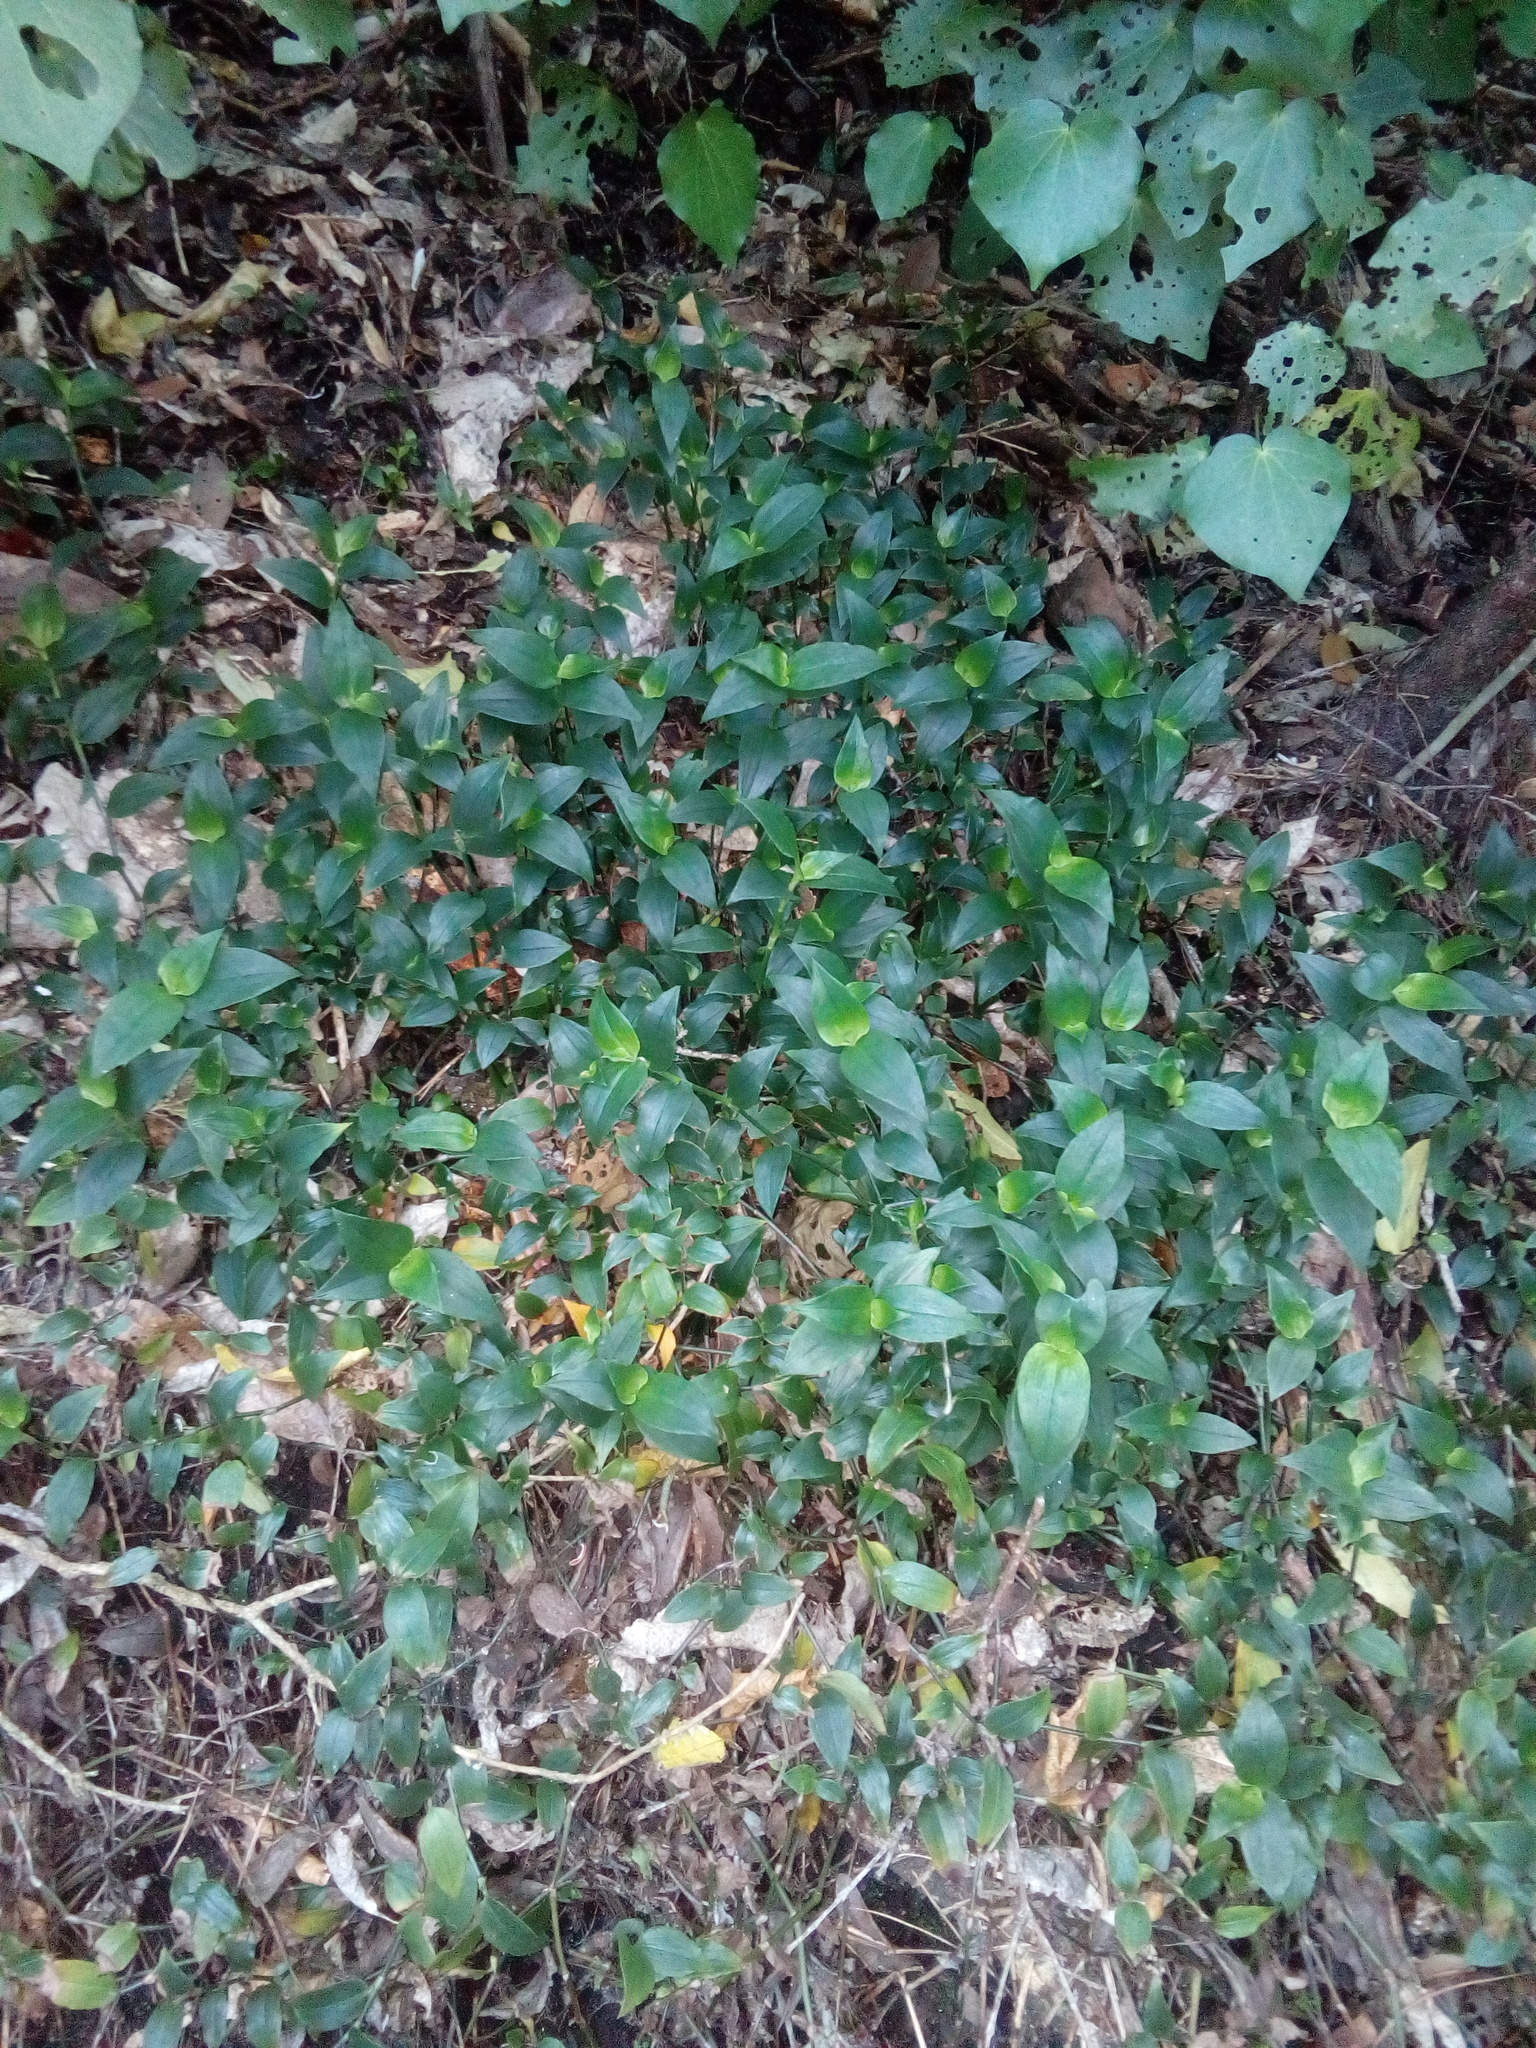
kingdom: Plantae
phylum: Tracheophyta
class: Liliopsida
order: Commelinales
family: Commelinaceae
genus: Tradescantia
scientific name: Tradescantia fluminensis
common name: Wandering-jew
